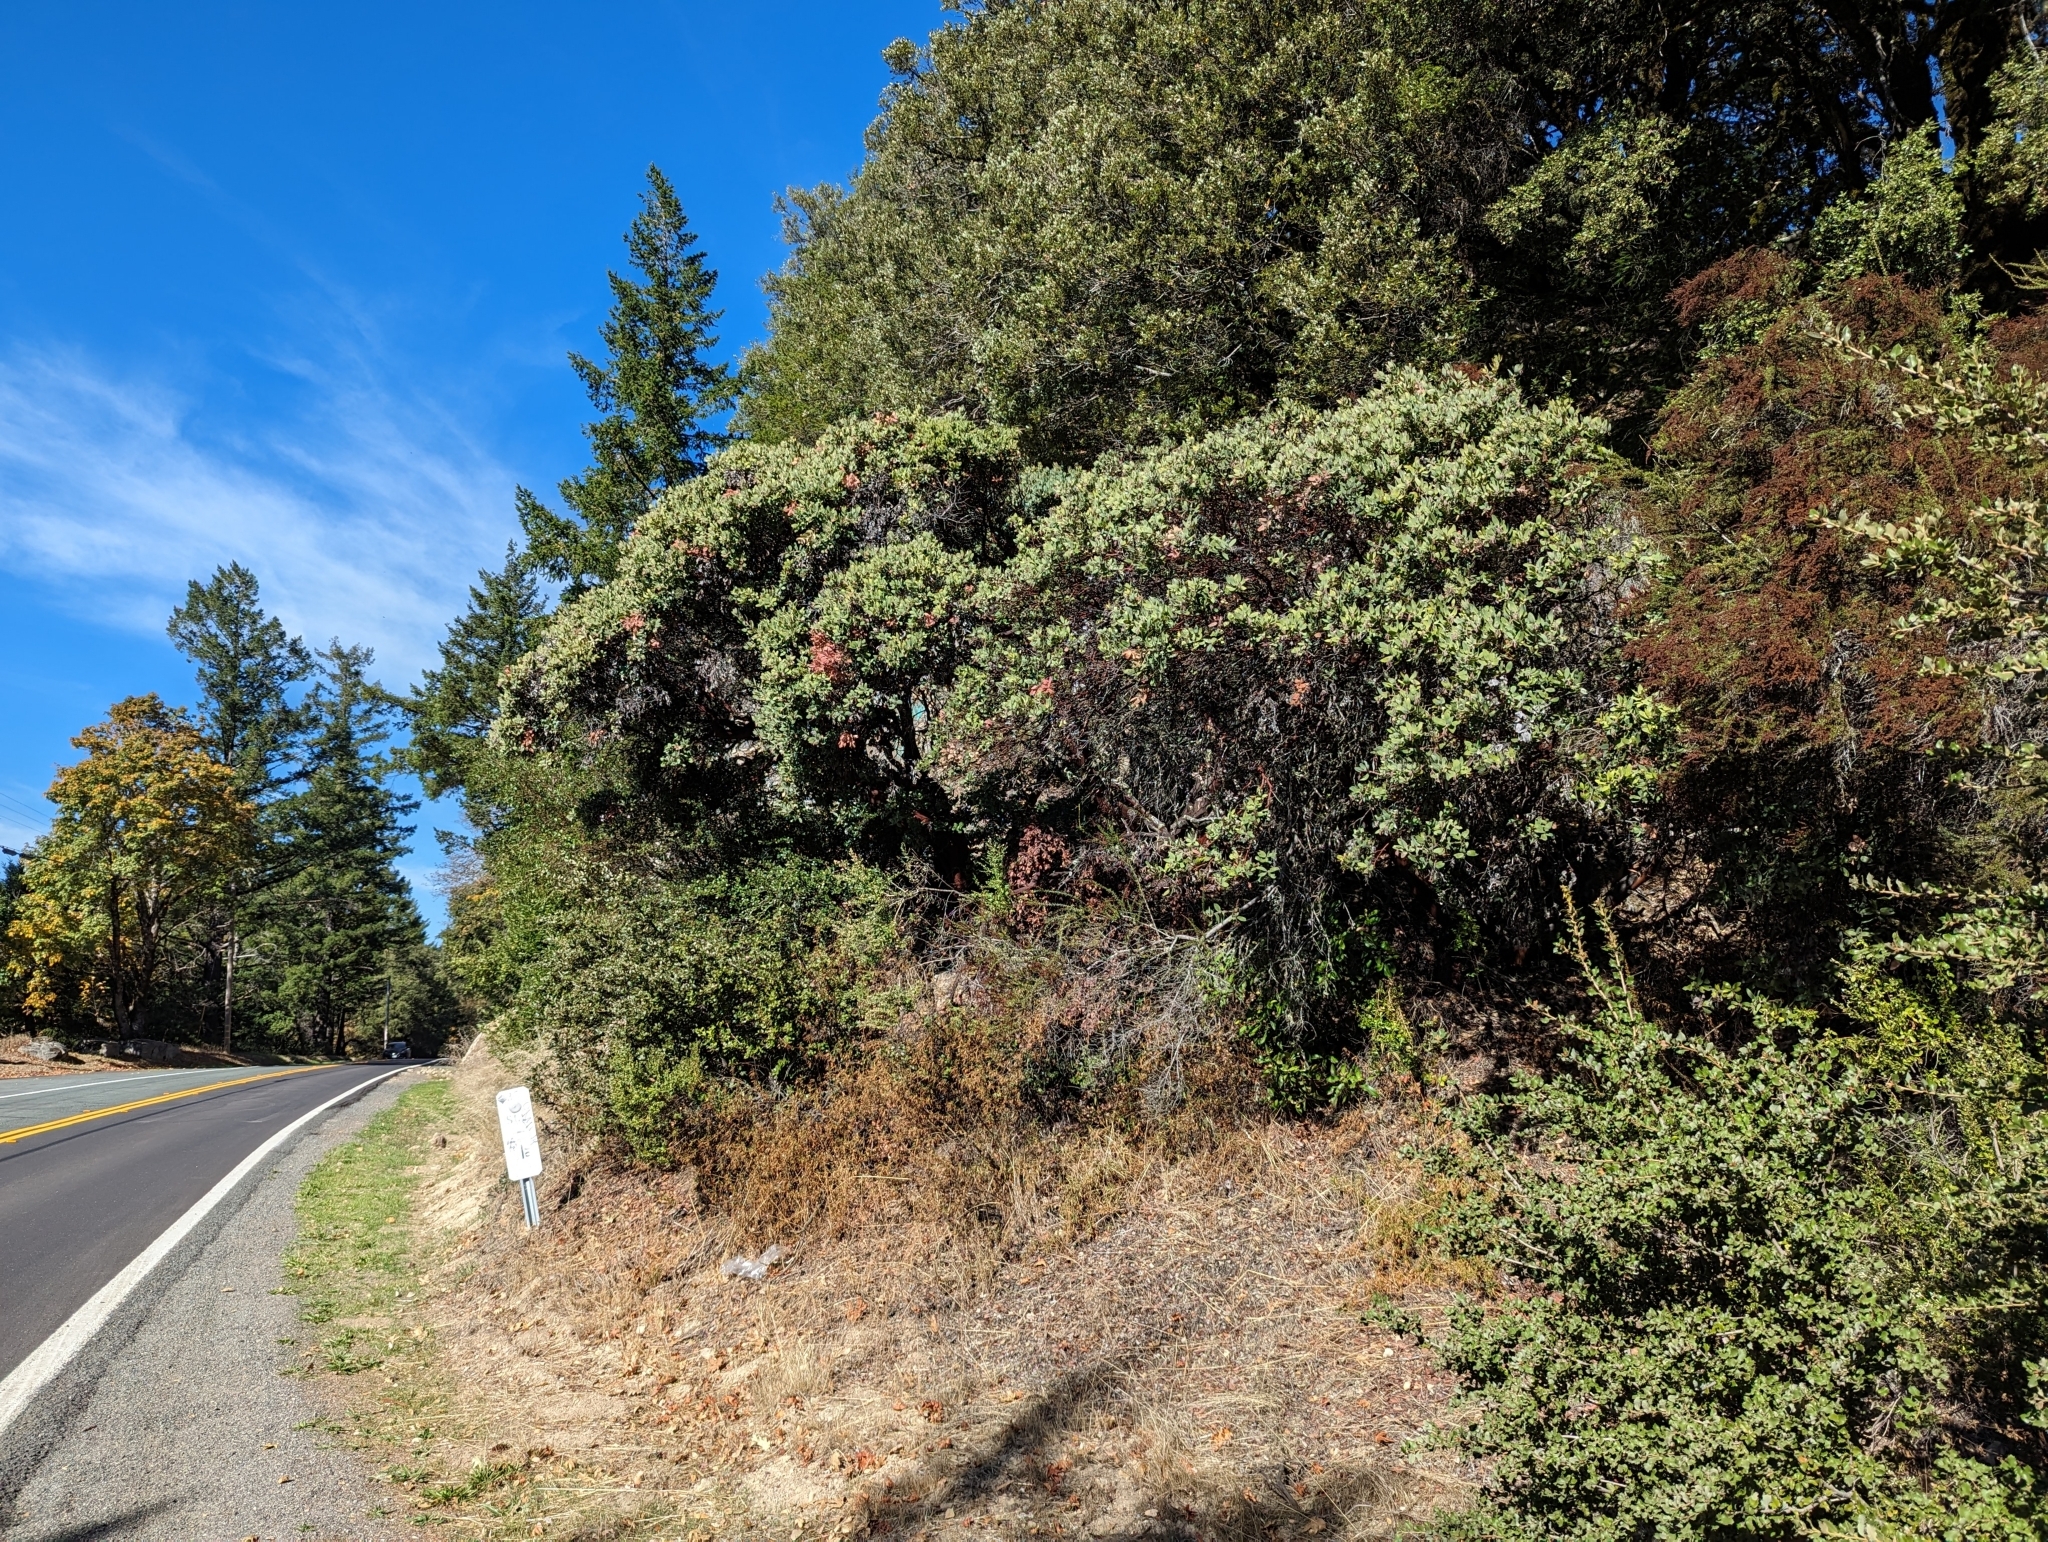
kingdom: Plantae
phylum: Tracheophyta
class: Magnoliopsida
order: Ericales
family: Ericaceae
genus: Arctostaphylos
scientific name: Arctostaphylos crustacea
